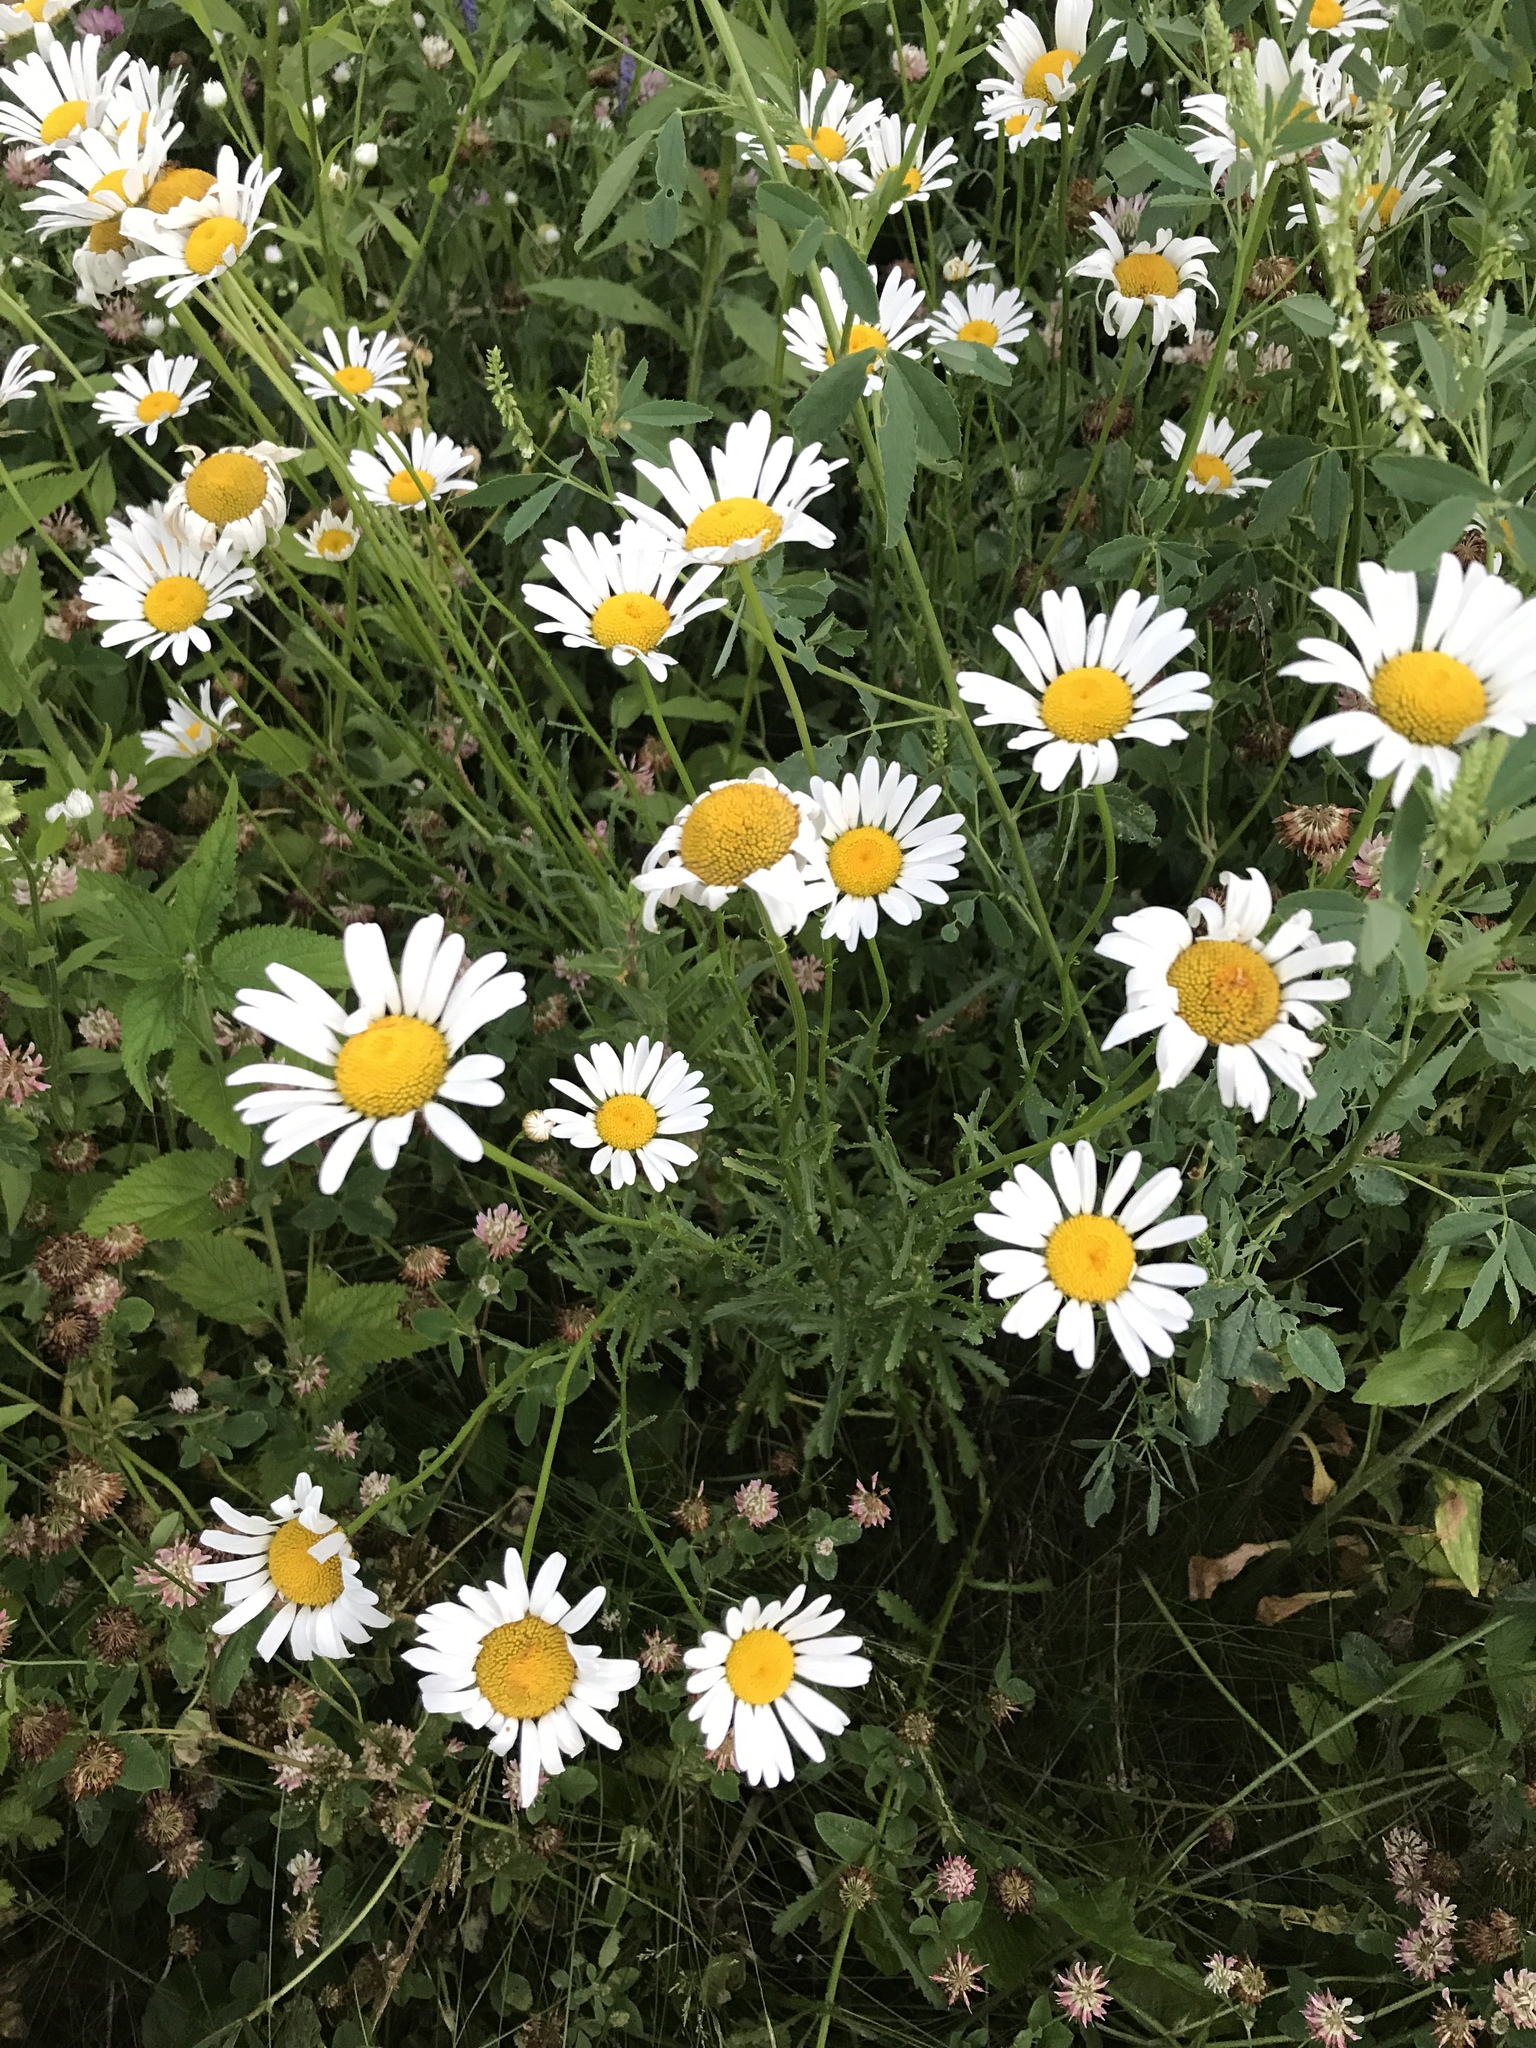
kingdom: Plantae
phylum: Tracheophyta
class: Magnoliopsida
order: Asterales
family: Asteraceae
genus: Leucanthemum
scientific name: Leucanthemum vulgare
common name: Oxeye daisy
